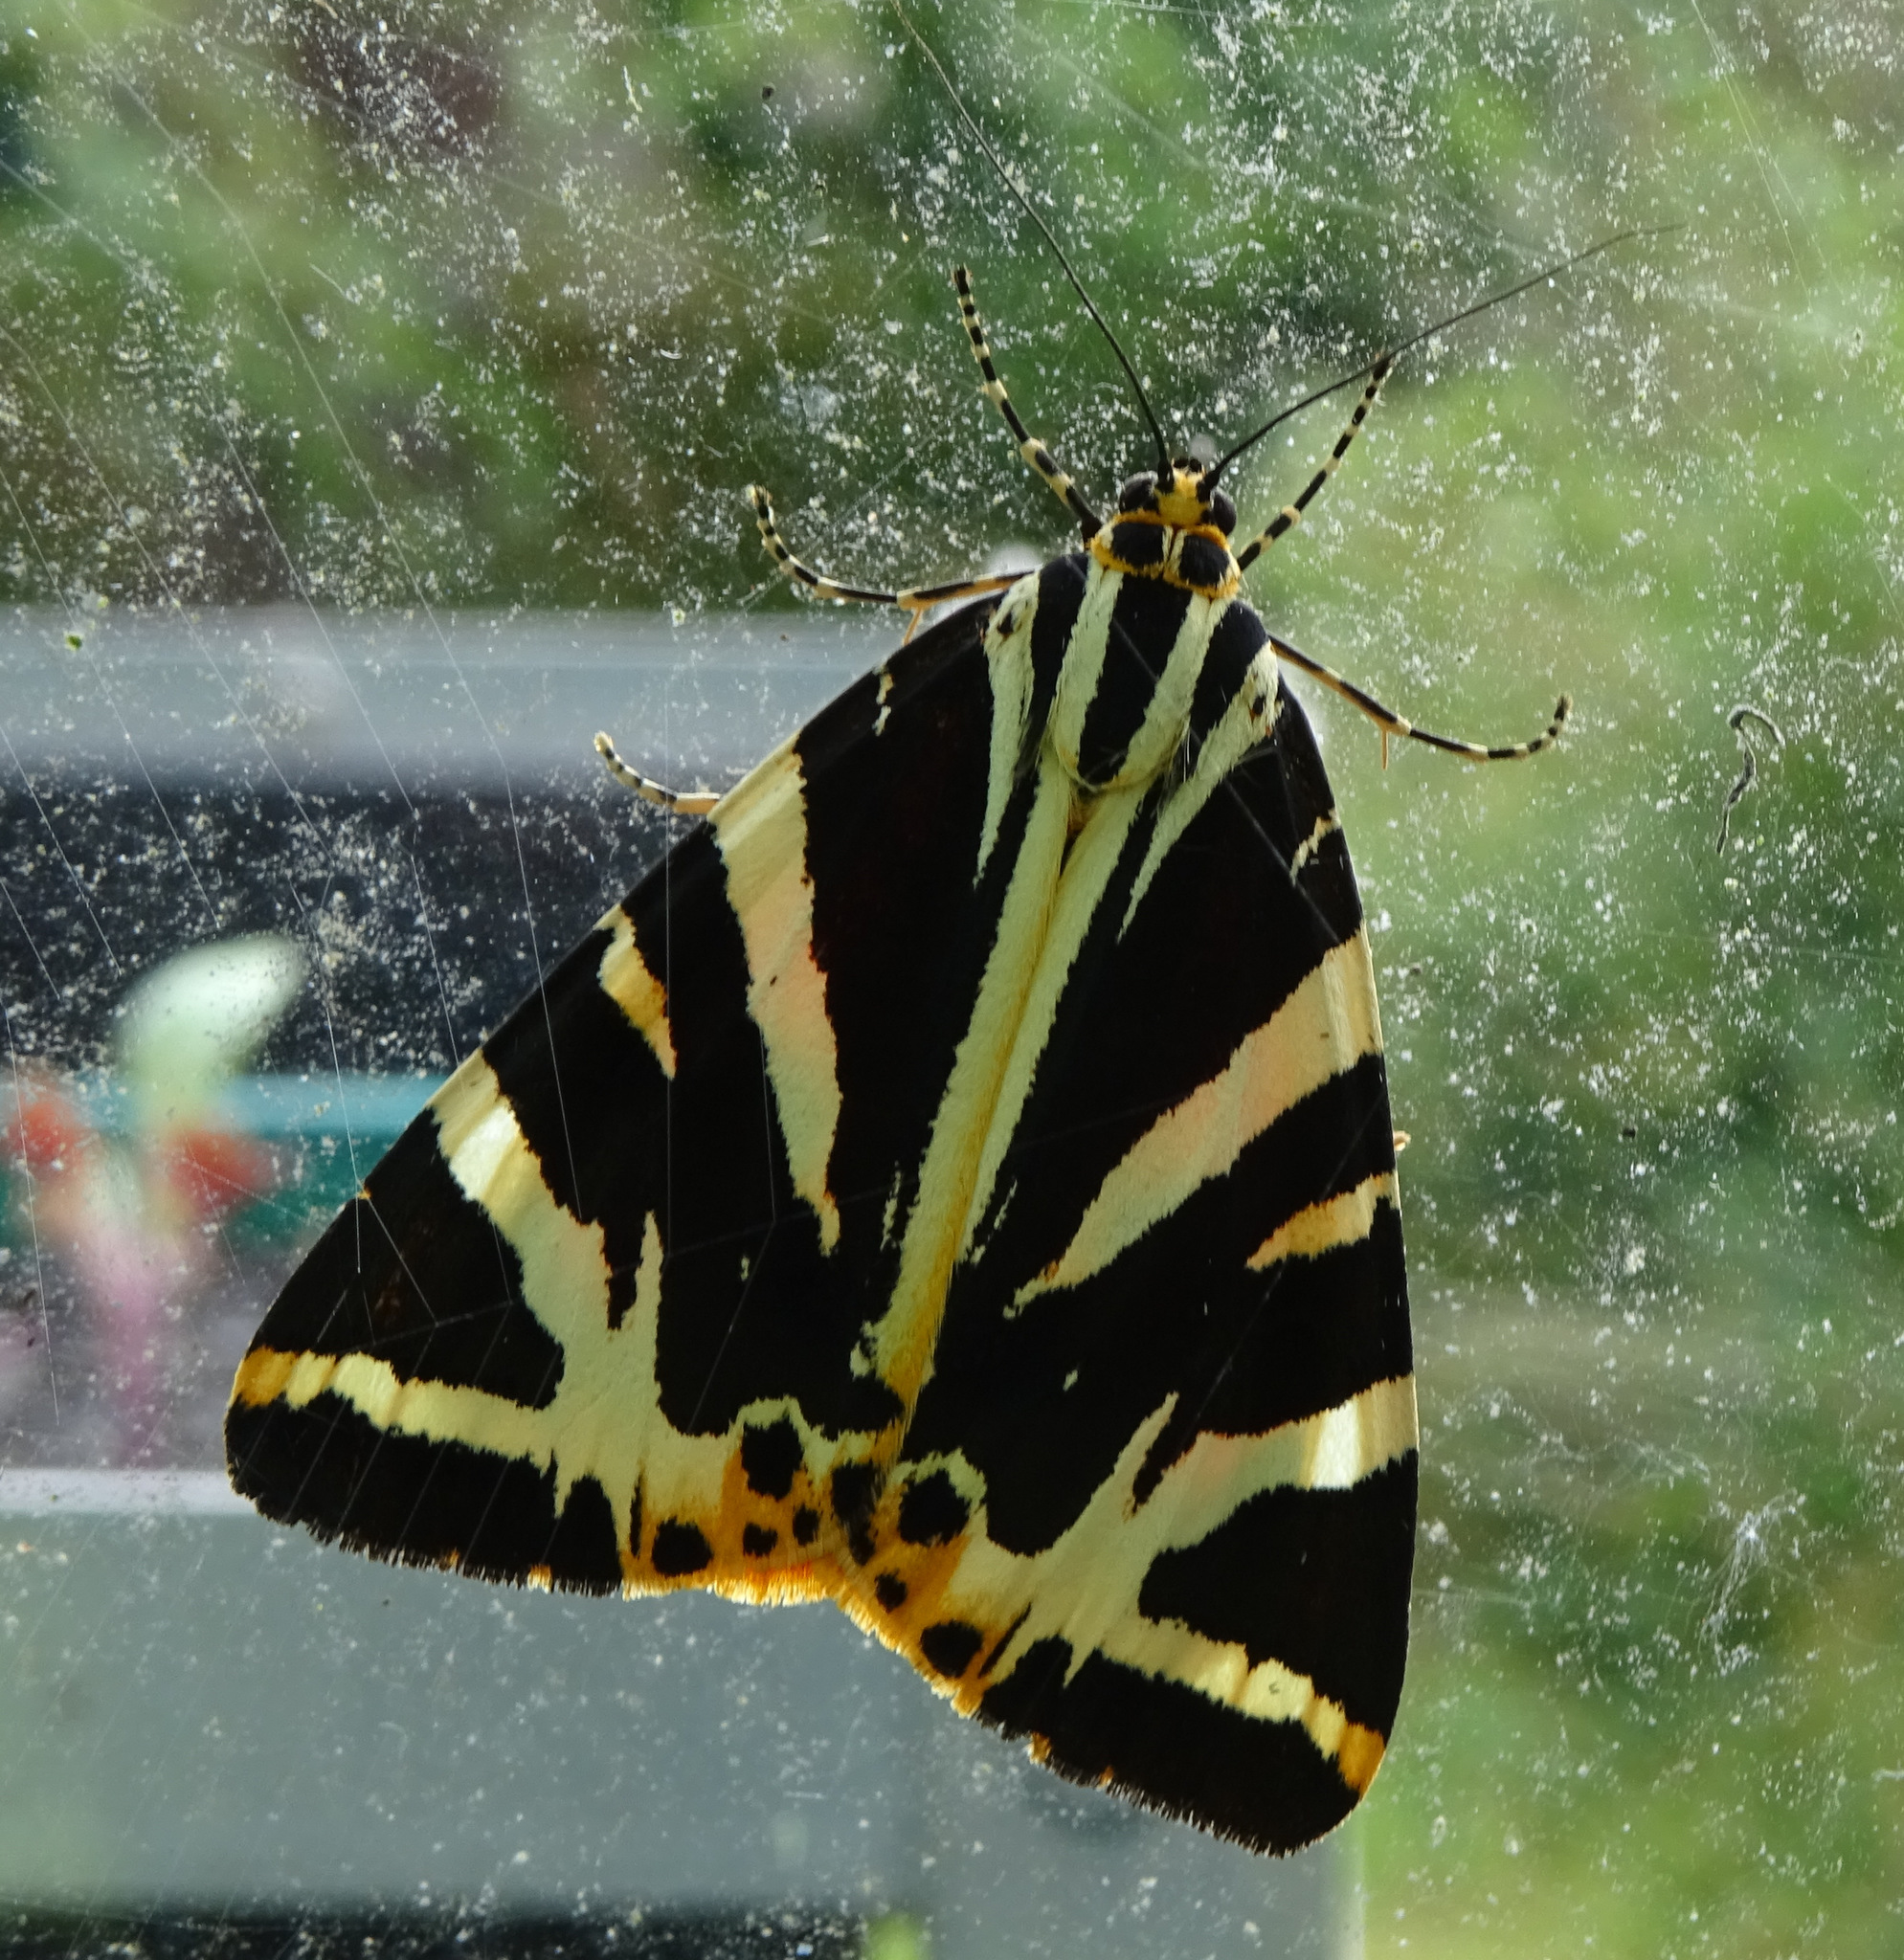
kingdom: Animalia
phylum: Arthropoda
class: Insecta
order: Lepidoptera
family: Erebidae
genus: Euplagia
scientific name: Euplagia quadripunctaria
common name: Jersey tiger
